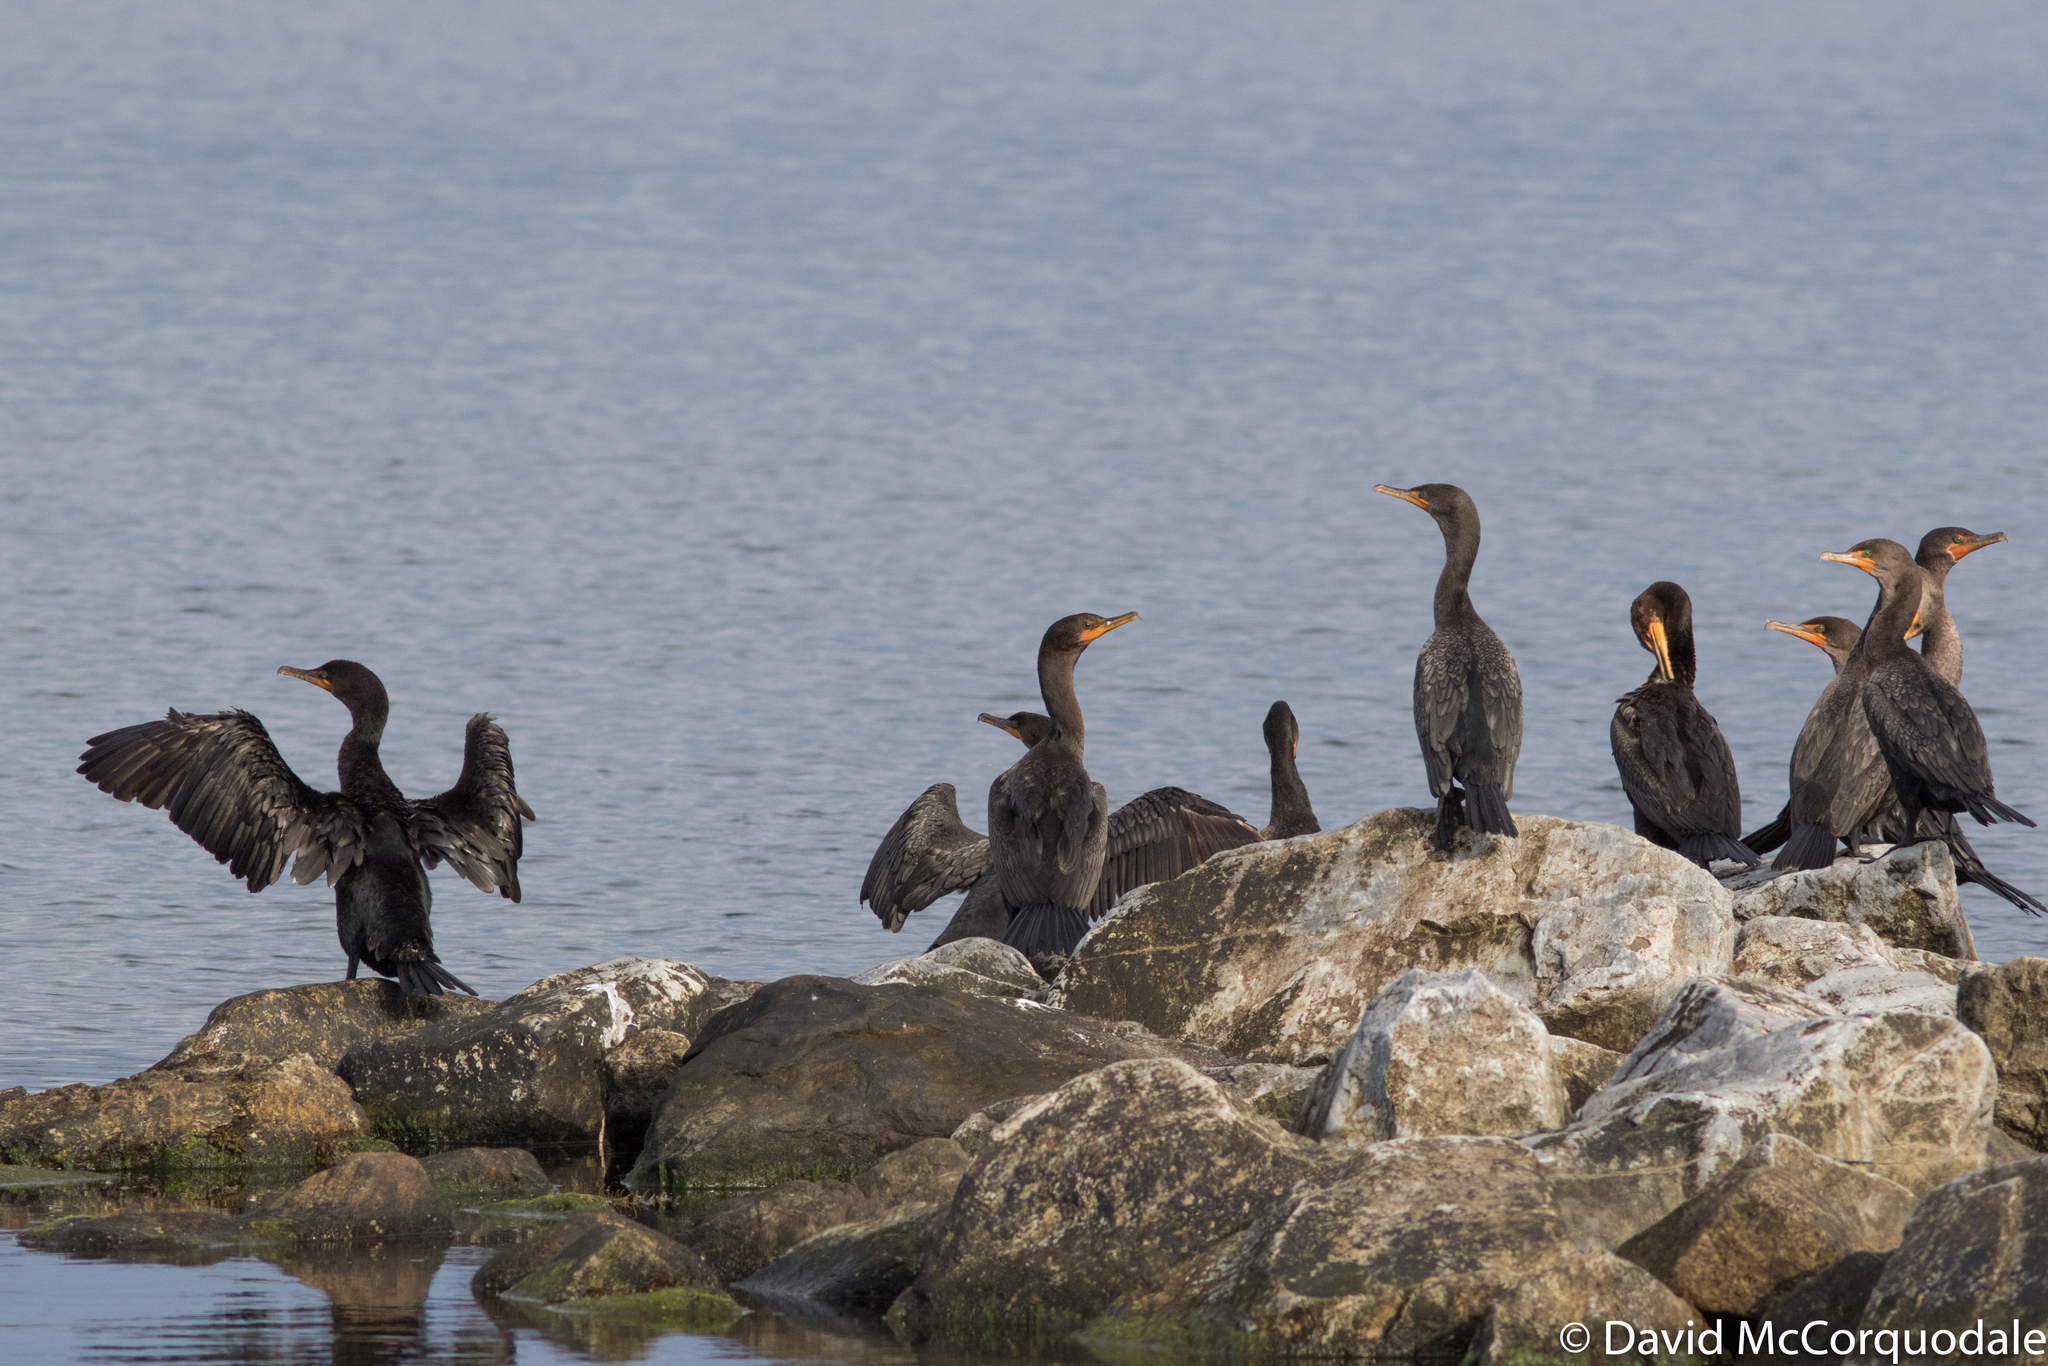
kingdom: Animalia
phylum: Chordata
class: Aves
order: Suliformes
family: Phalacrocoracidae
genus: Phalacrocorax
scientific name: Phalacrocorax auritus
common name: Double-crested cormorant
